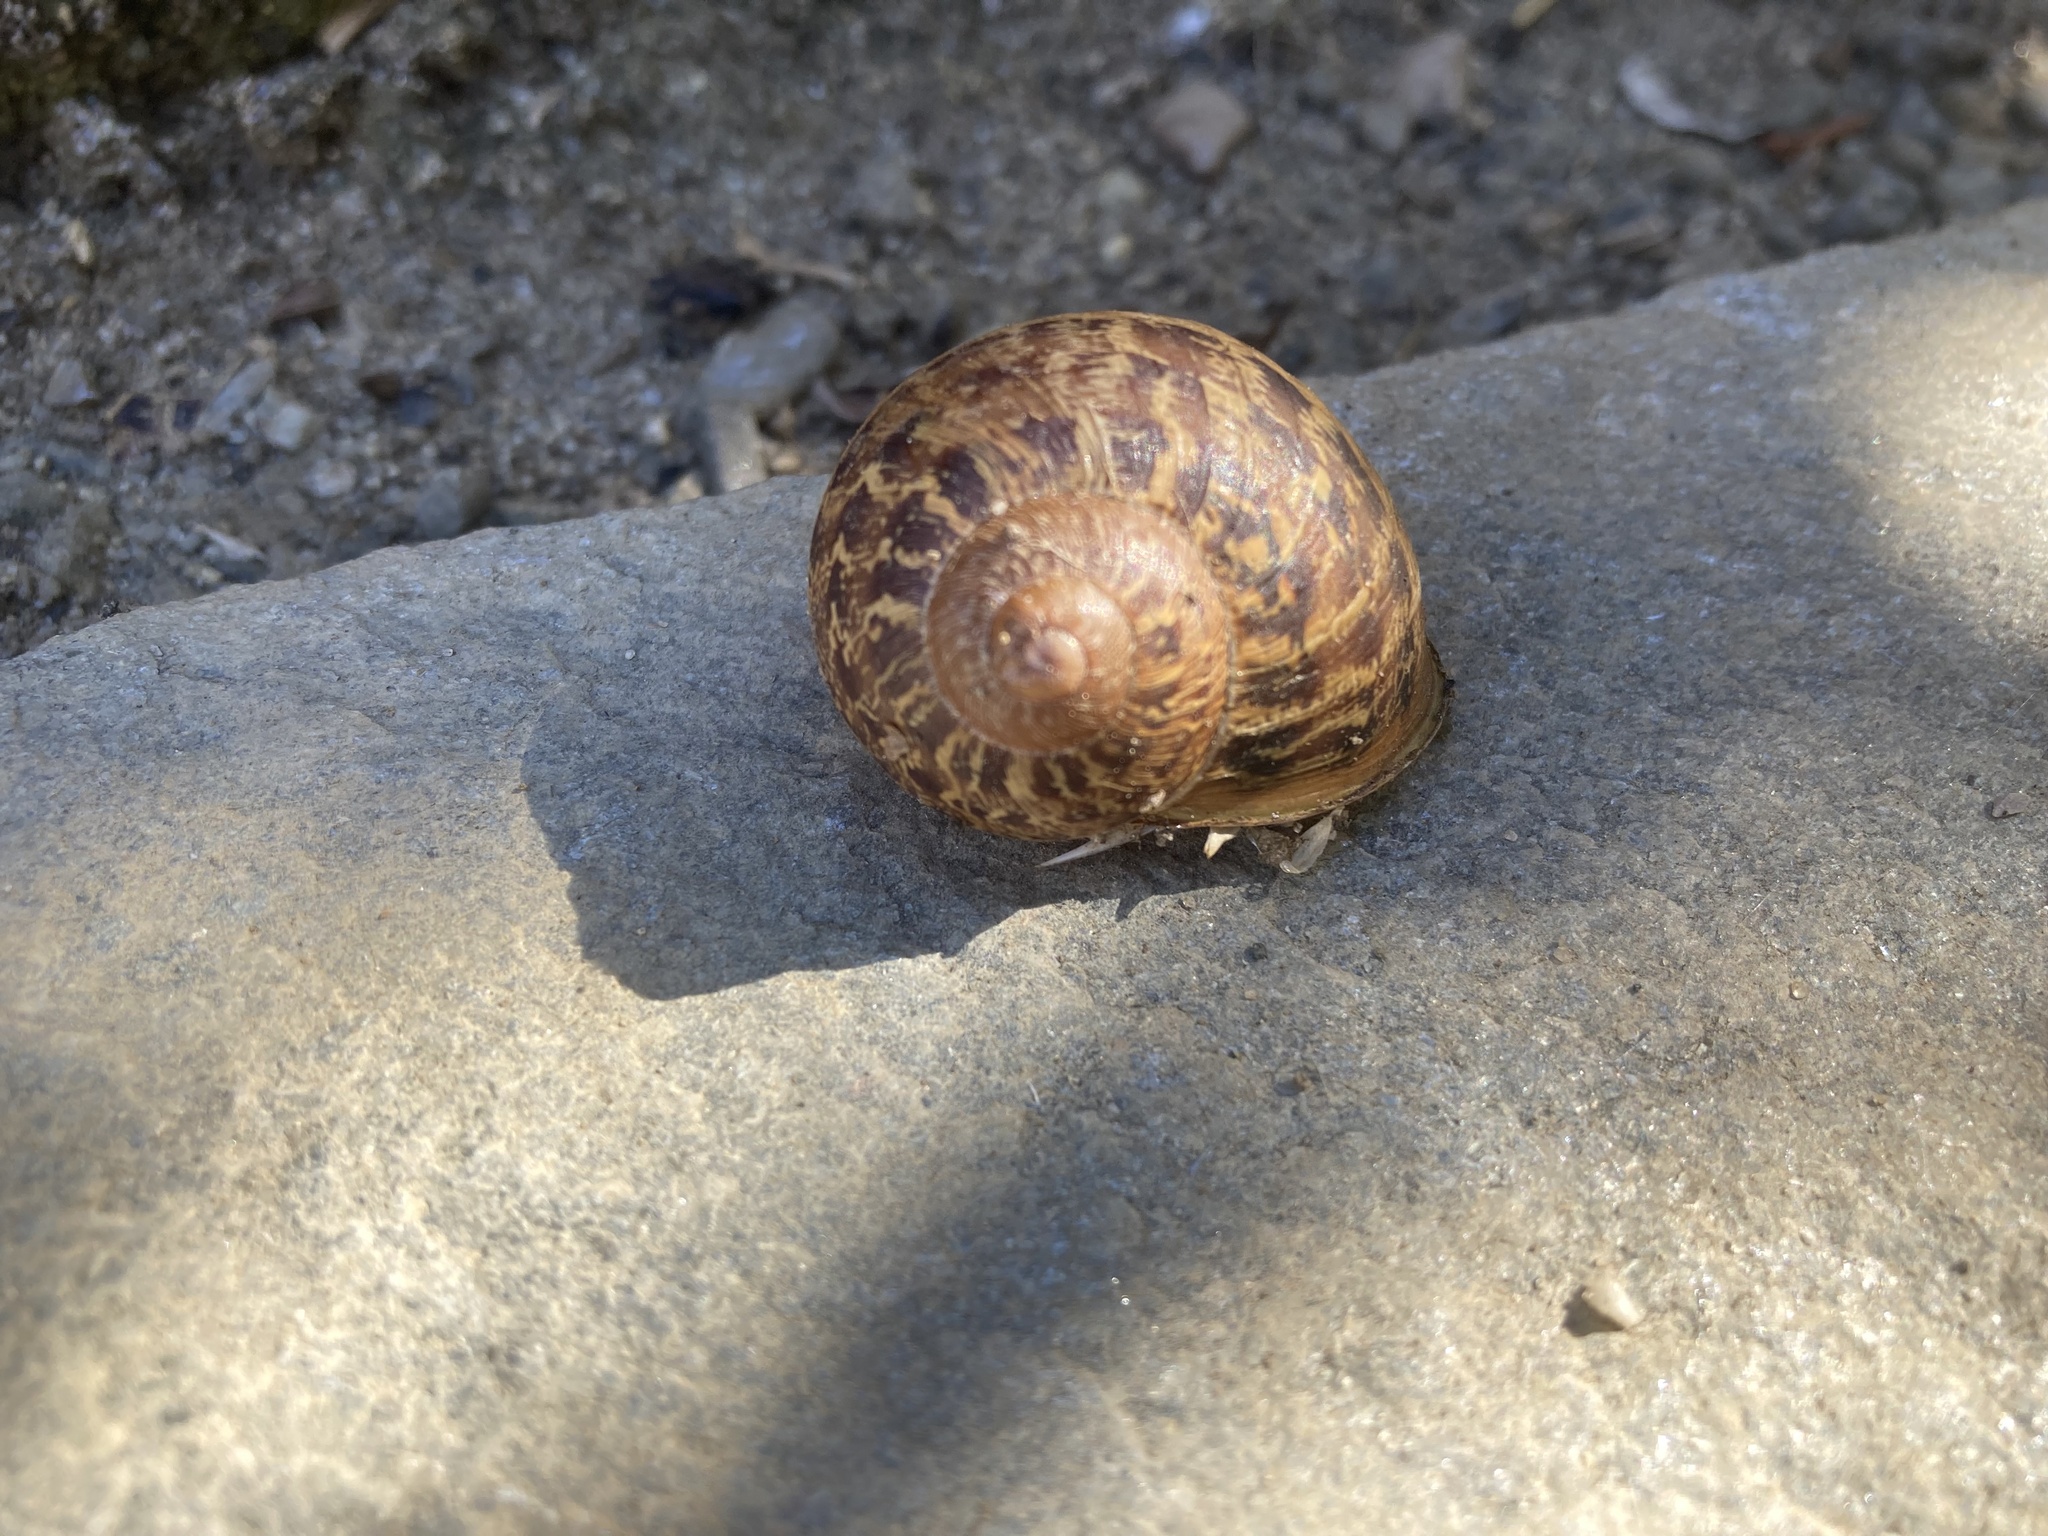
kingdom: Animalia
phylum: Mollusca
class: Gastropoda
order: Stylommatophora
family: Helicidae
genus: Cornu
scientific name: Cornu aspersum
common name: Brown garden snail
